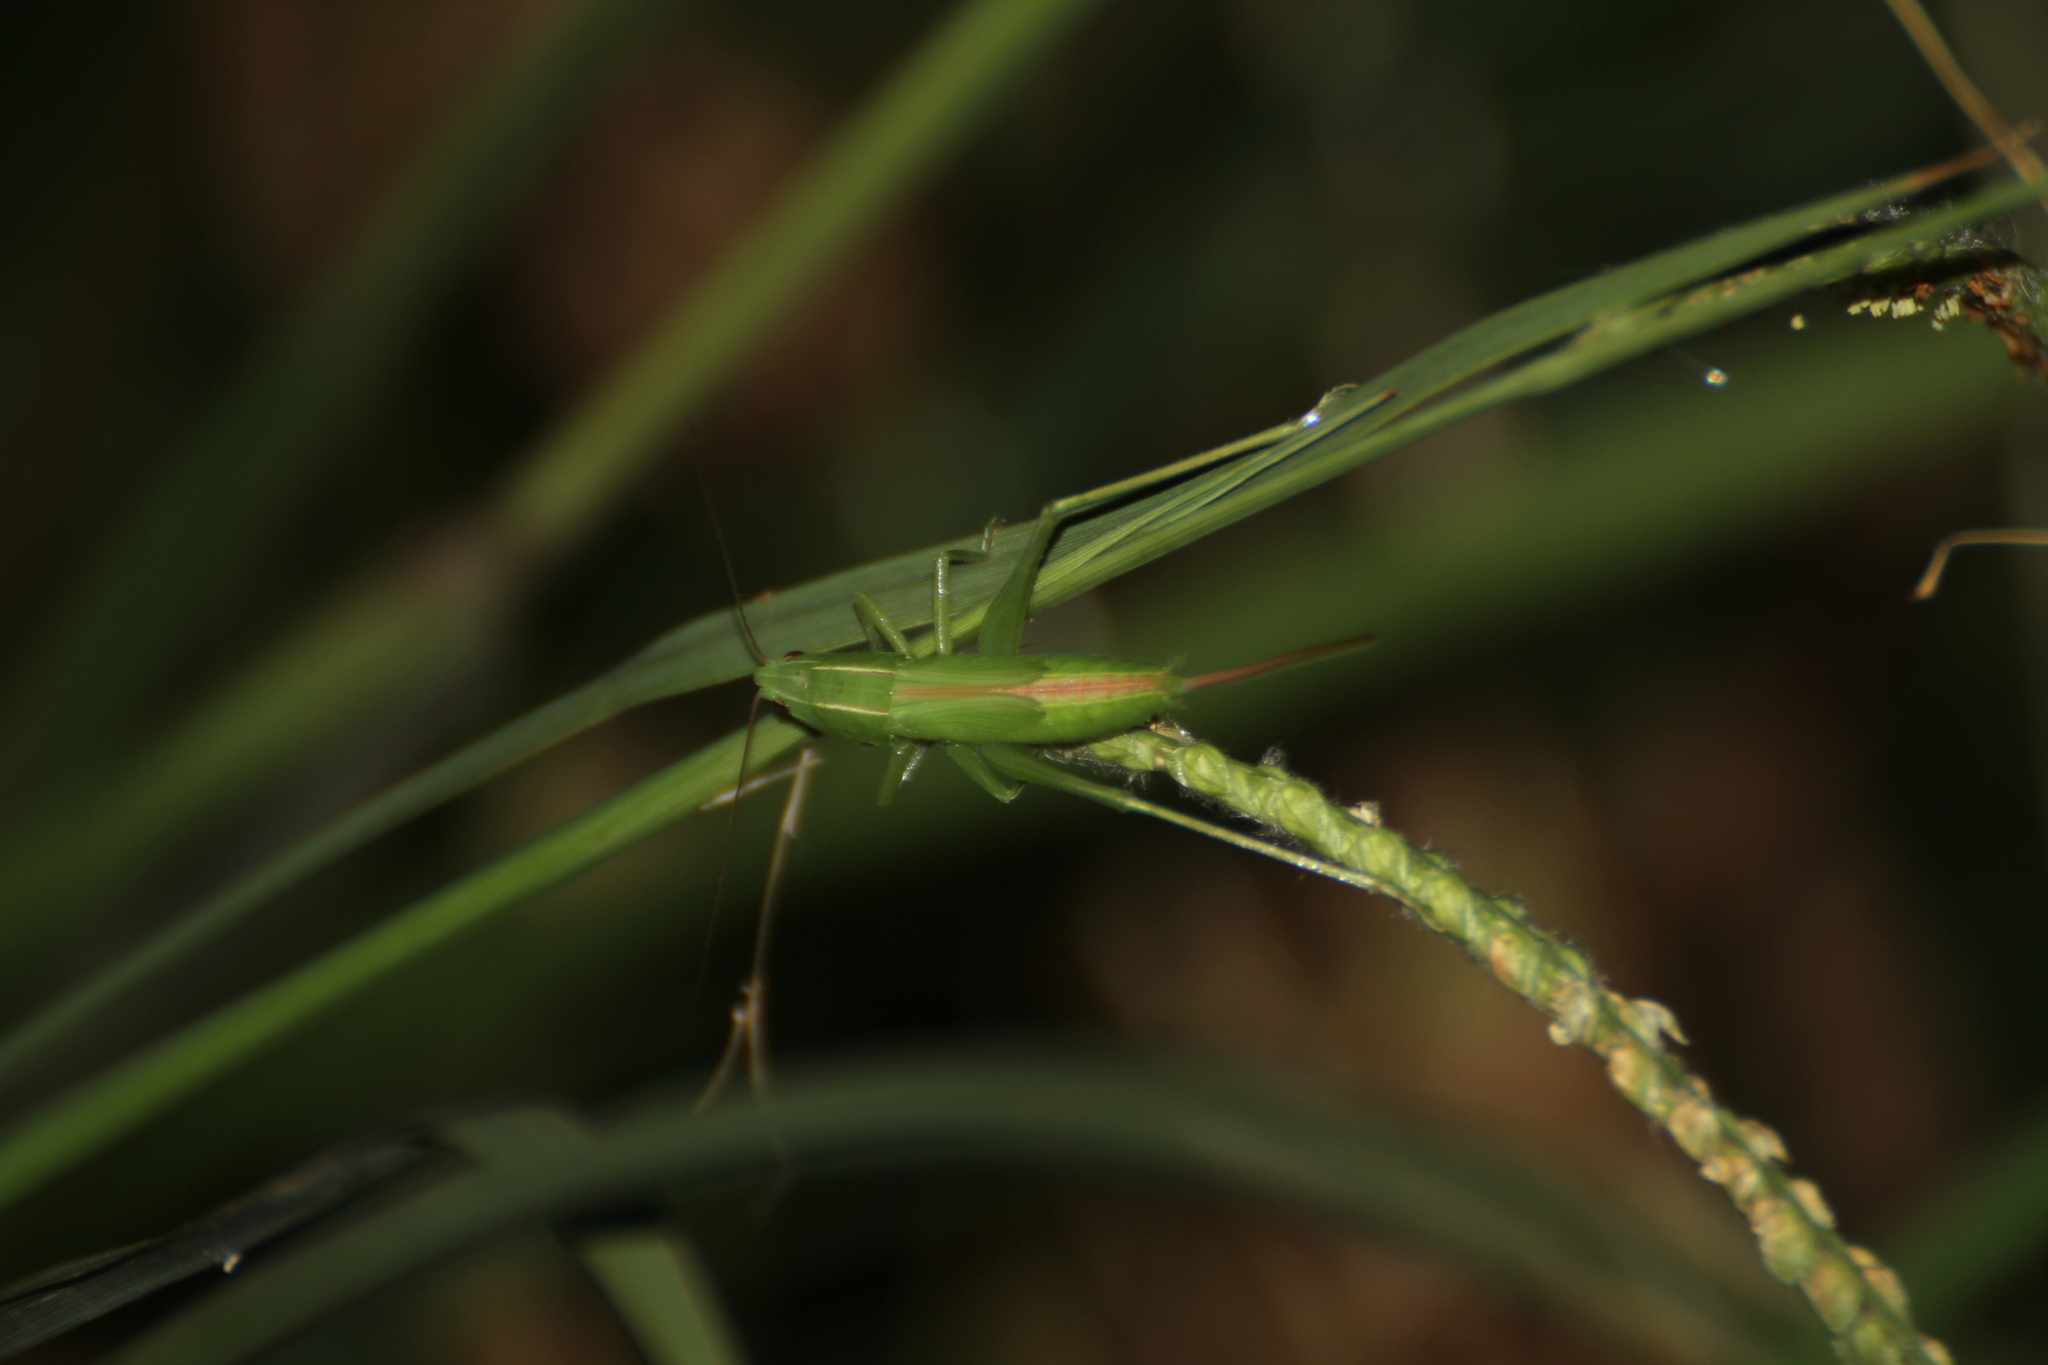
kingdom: Animalia
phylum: Arthropoda
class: Insecta
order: Orthoptera
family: Tettigoniidae
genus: Ruspolia
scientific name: Ruspolia nitidula
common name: Large conehead
